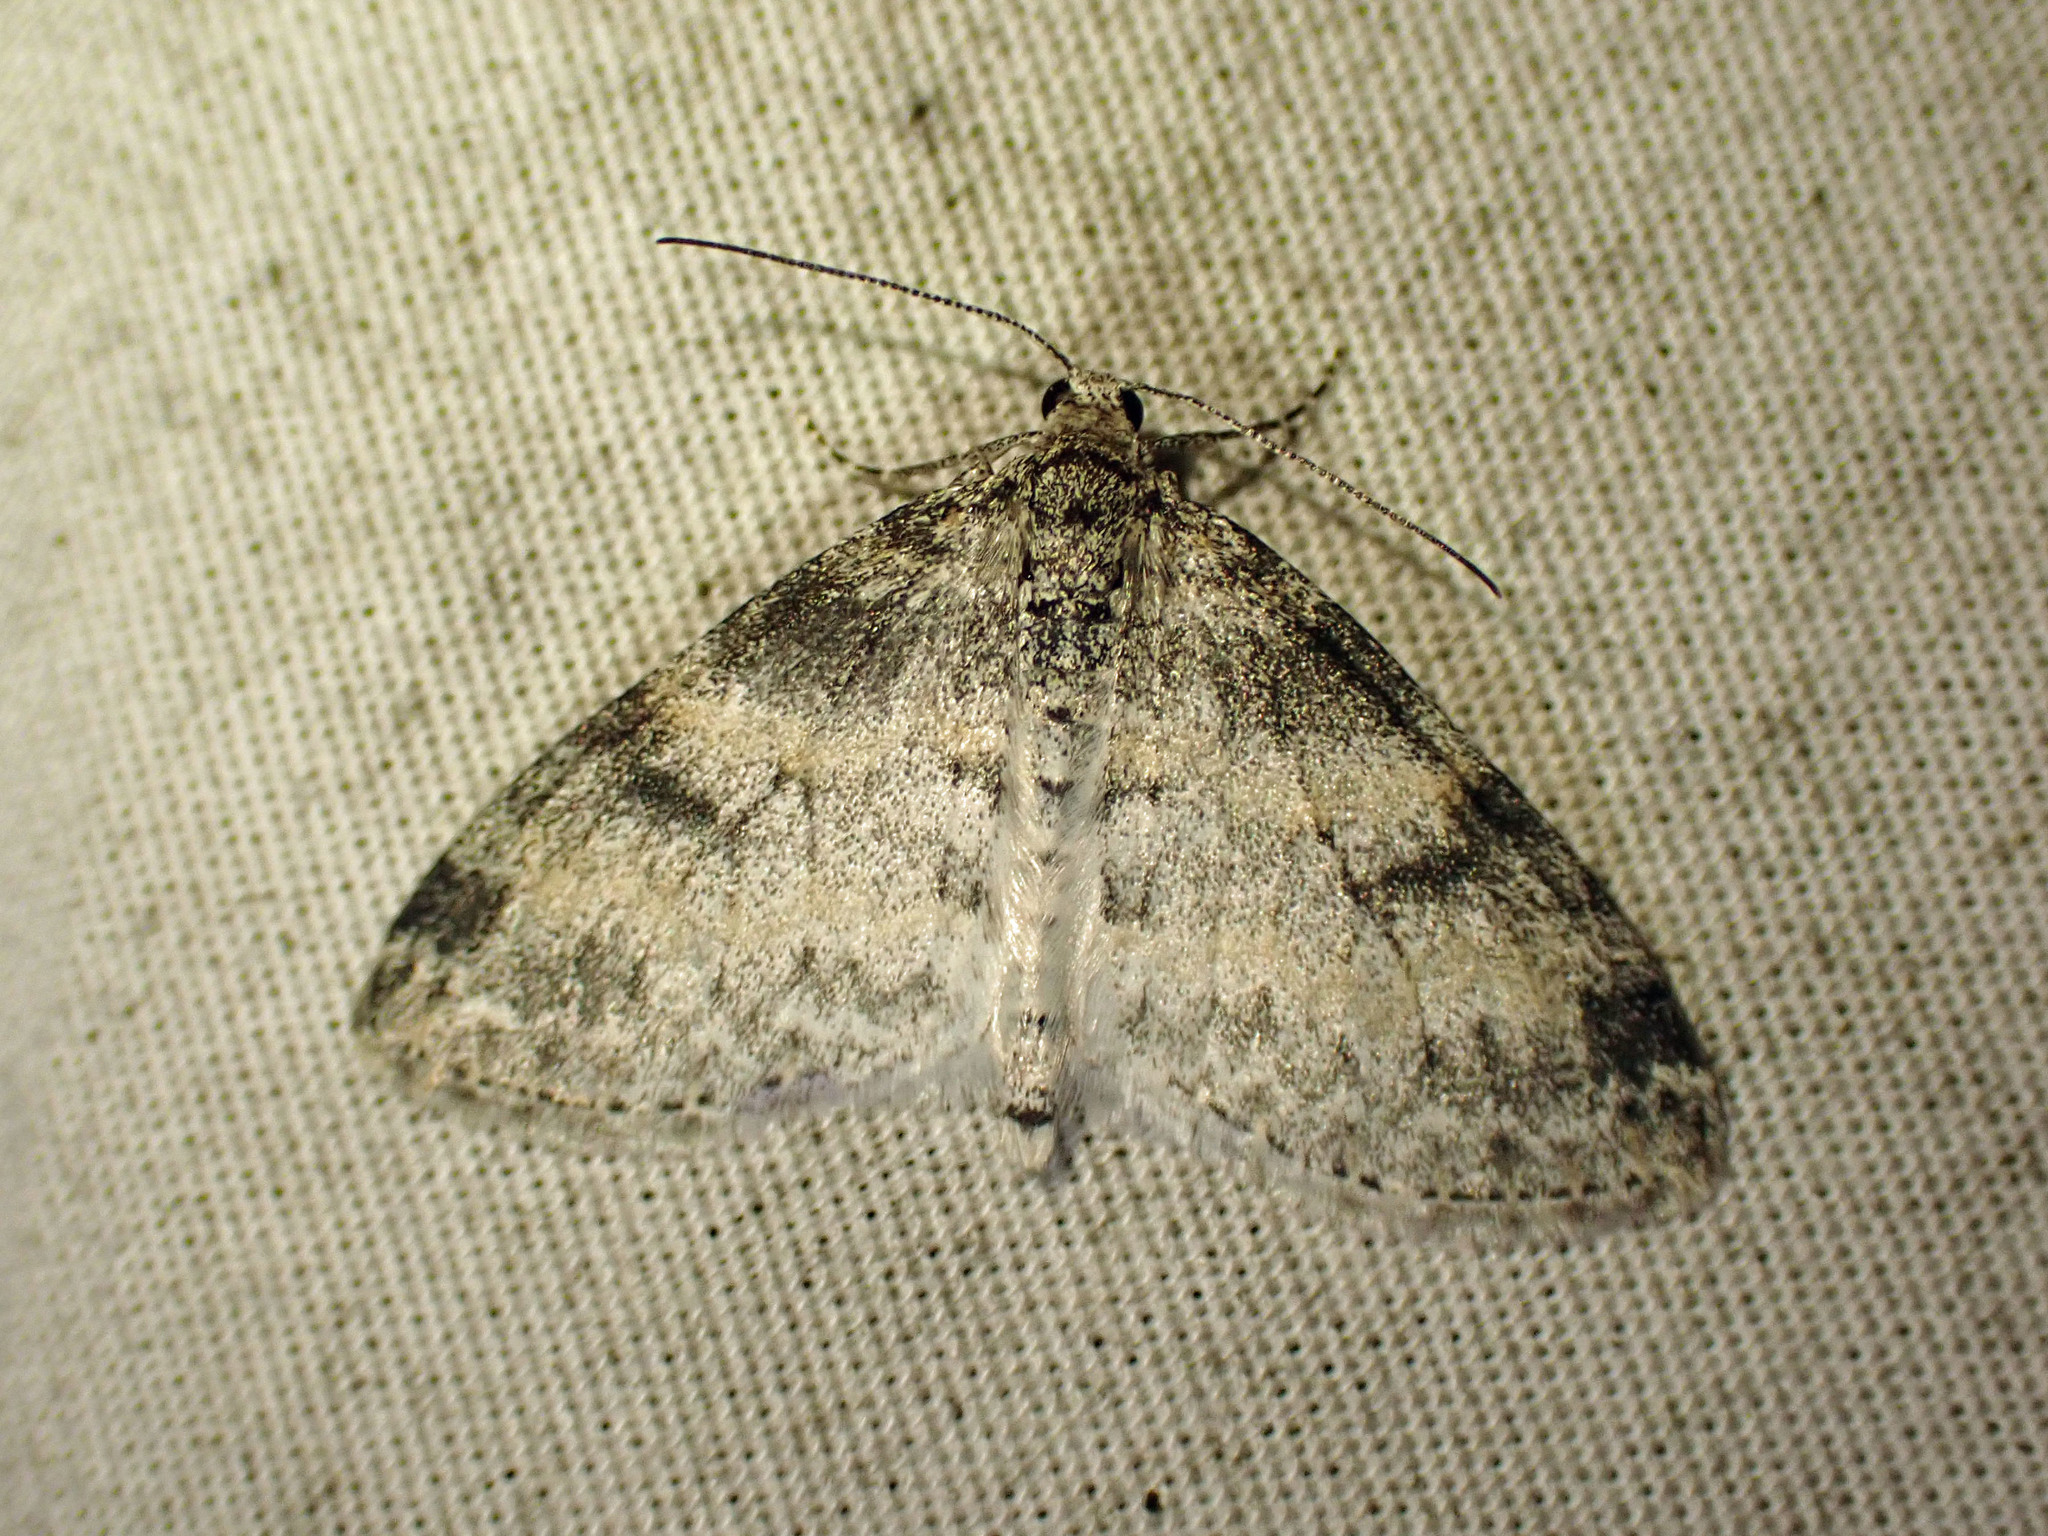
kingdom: Animalia
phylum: Arthropoda
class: Insecta
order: Lepidoptera
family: Geometridae
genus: Lobophora
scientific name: Lobophora nivigerata
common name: Powdered bigwing
